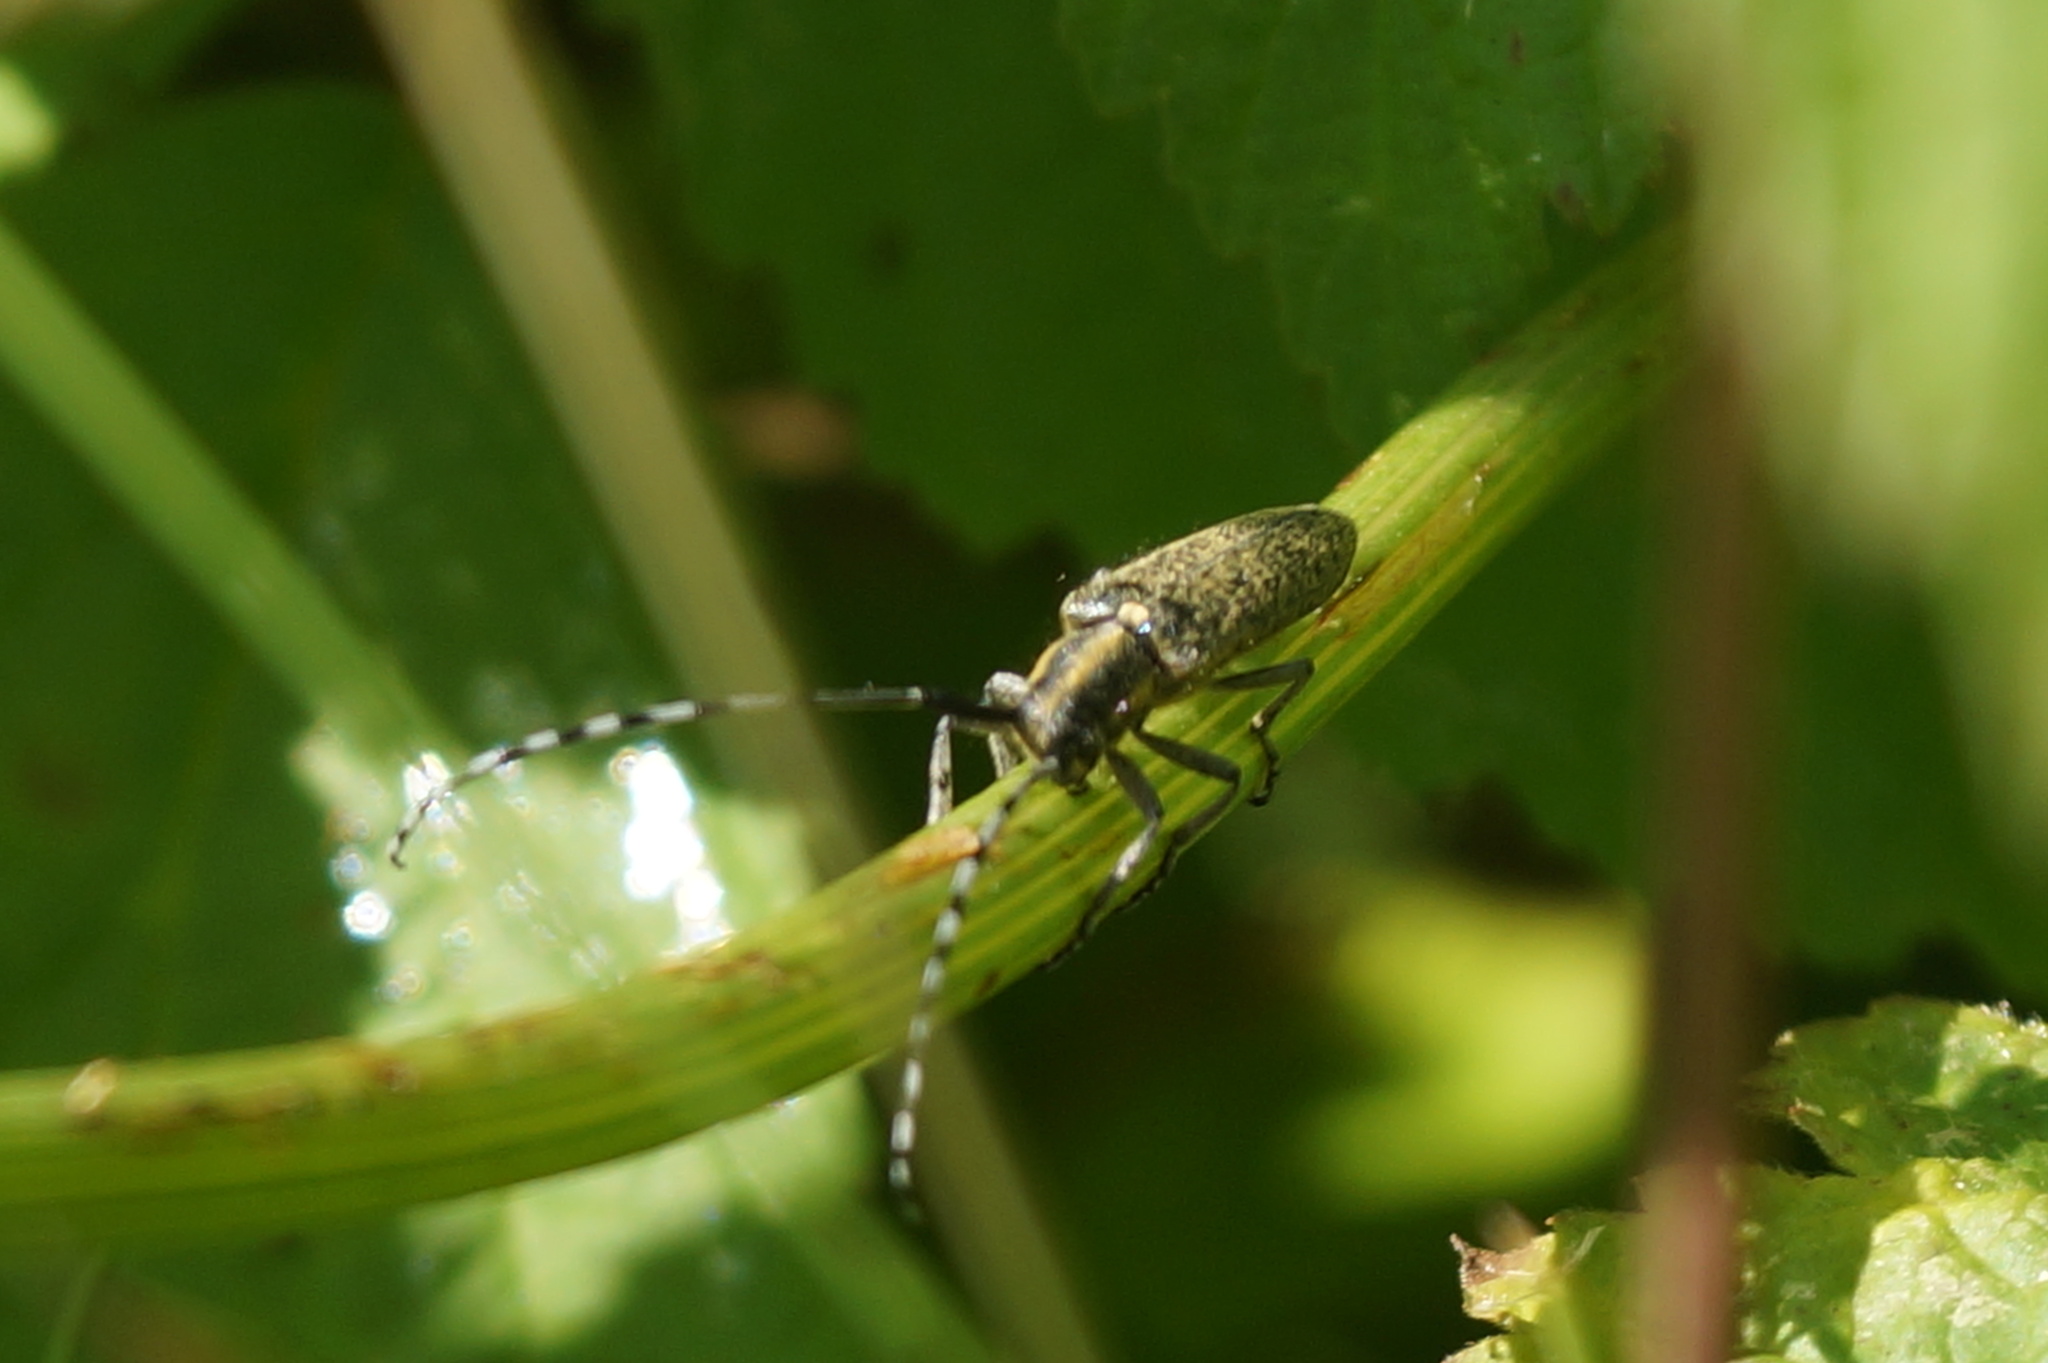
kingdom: Animalia
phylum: Arthropoda
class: Insecta
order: Coleoptera
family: Cerambycidae
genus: Agapanthia
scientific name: Agapanthia villosoviridescens
